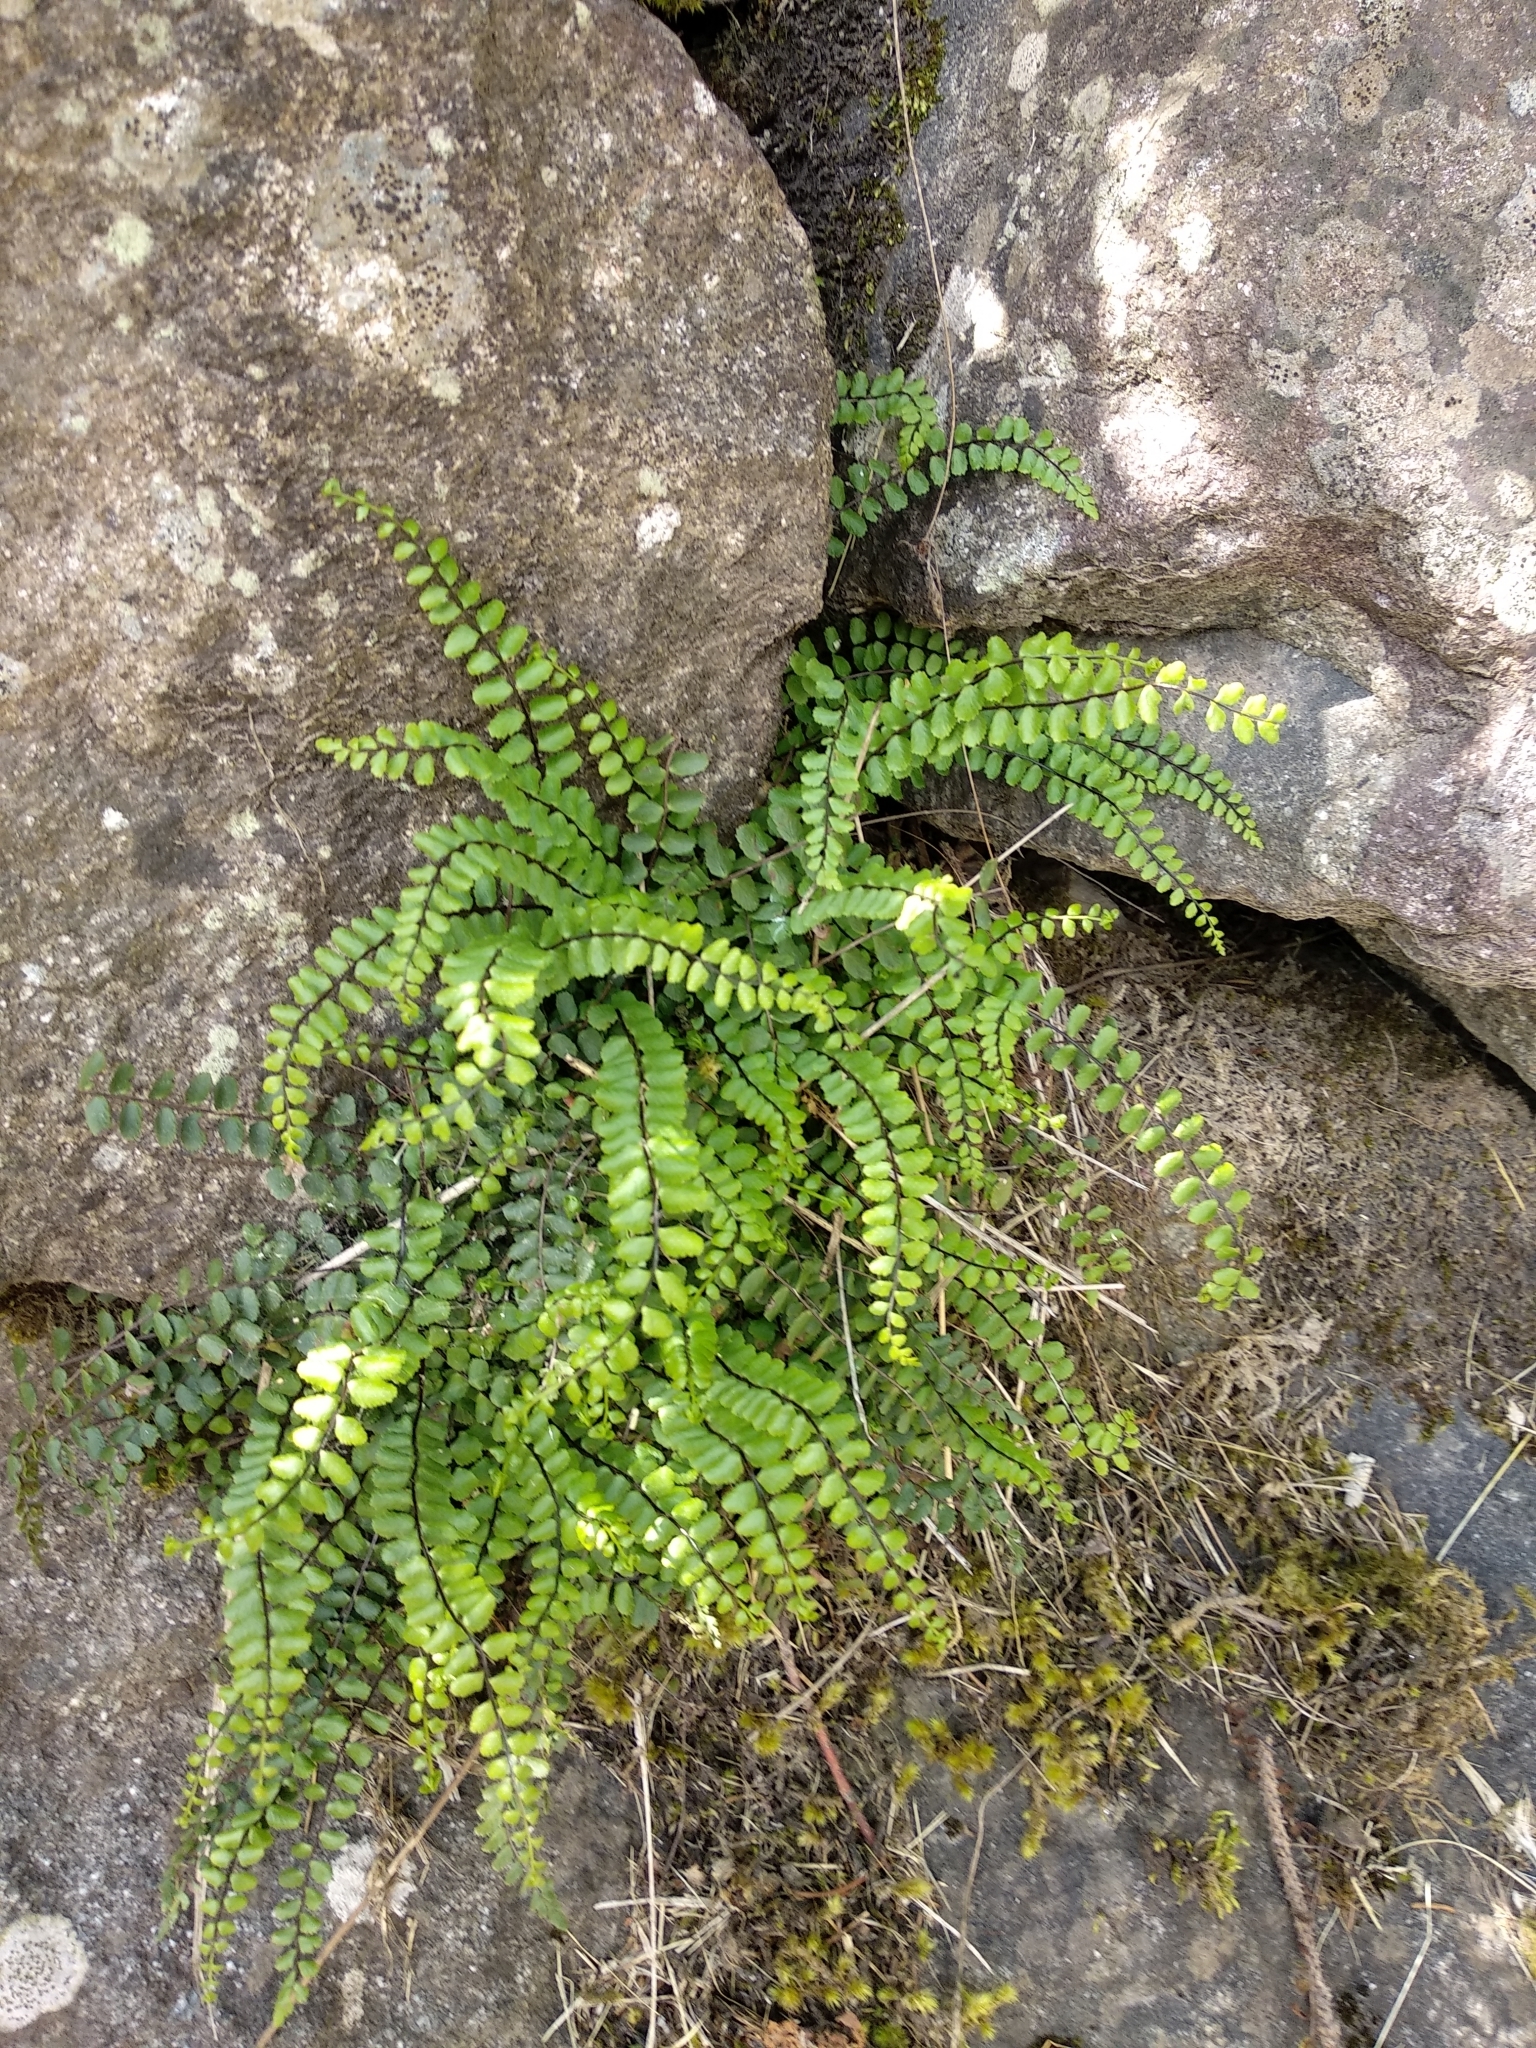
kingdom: Plantae
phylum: Tracheophyta
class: Polypodiopsida
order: Polypodiales
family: Aspleniaceae
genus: Asplenium
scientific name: Asplenium trichomanes
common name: Maidenhair spleenwort
